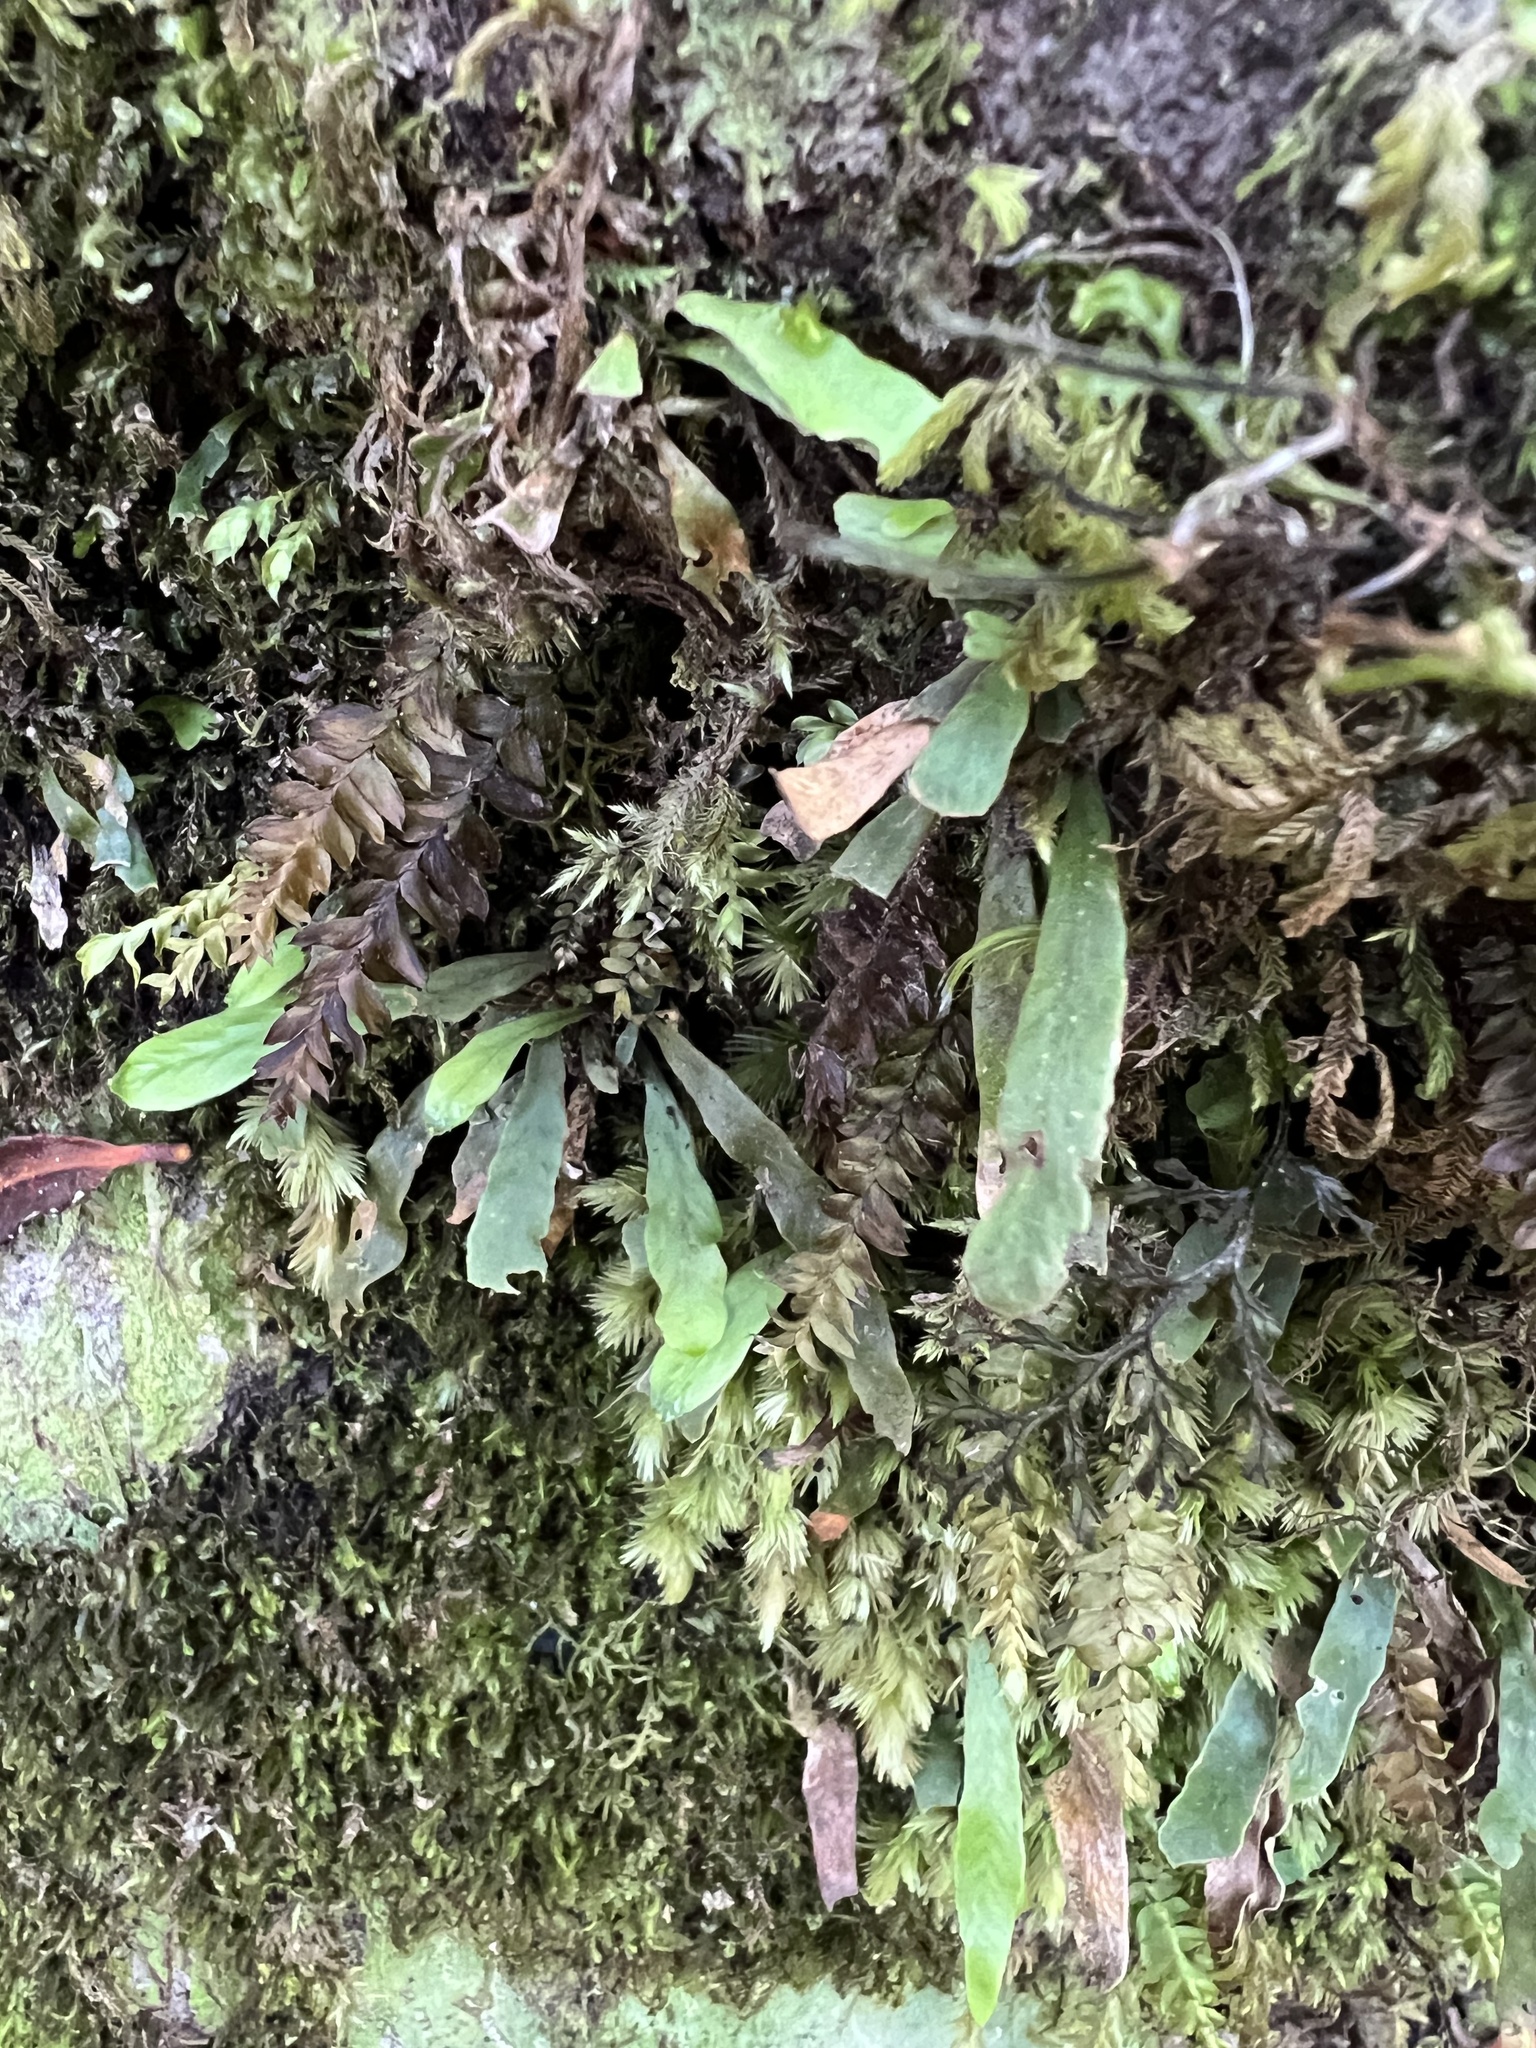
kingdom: Plantae
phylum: Tracheophyta
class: Polypodiopsida
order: Polypodiales
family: Polypodiaceae
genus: Notogrammitis
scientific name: Notogrammitis ciliata
